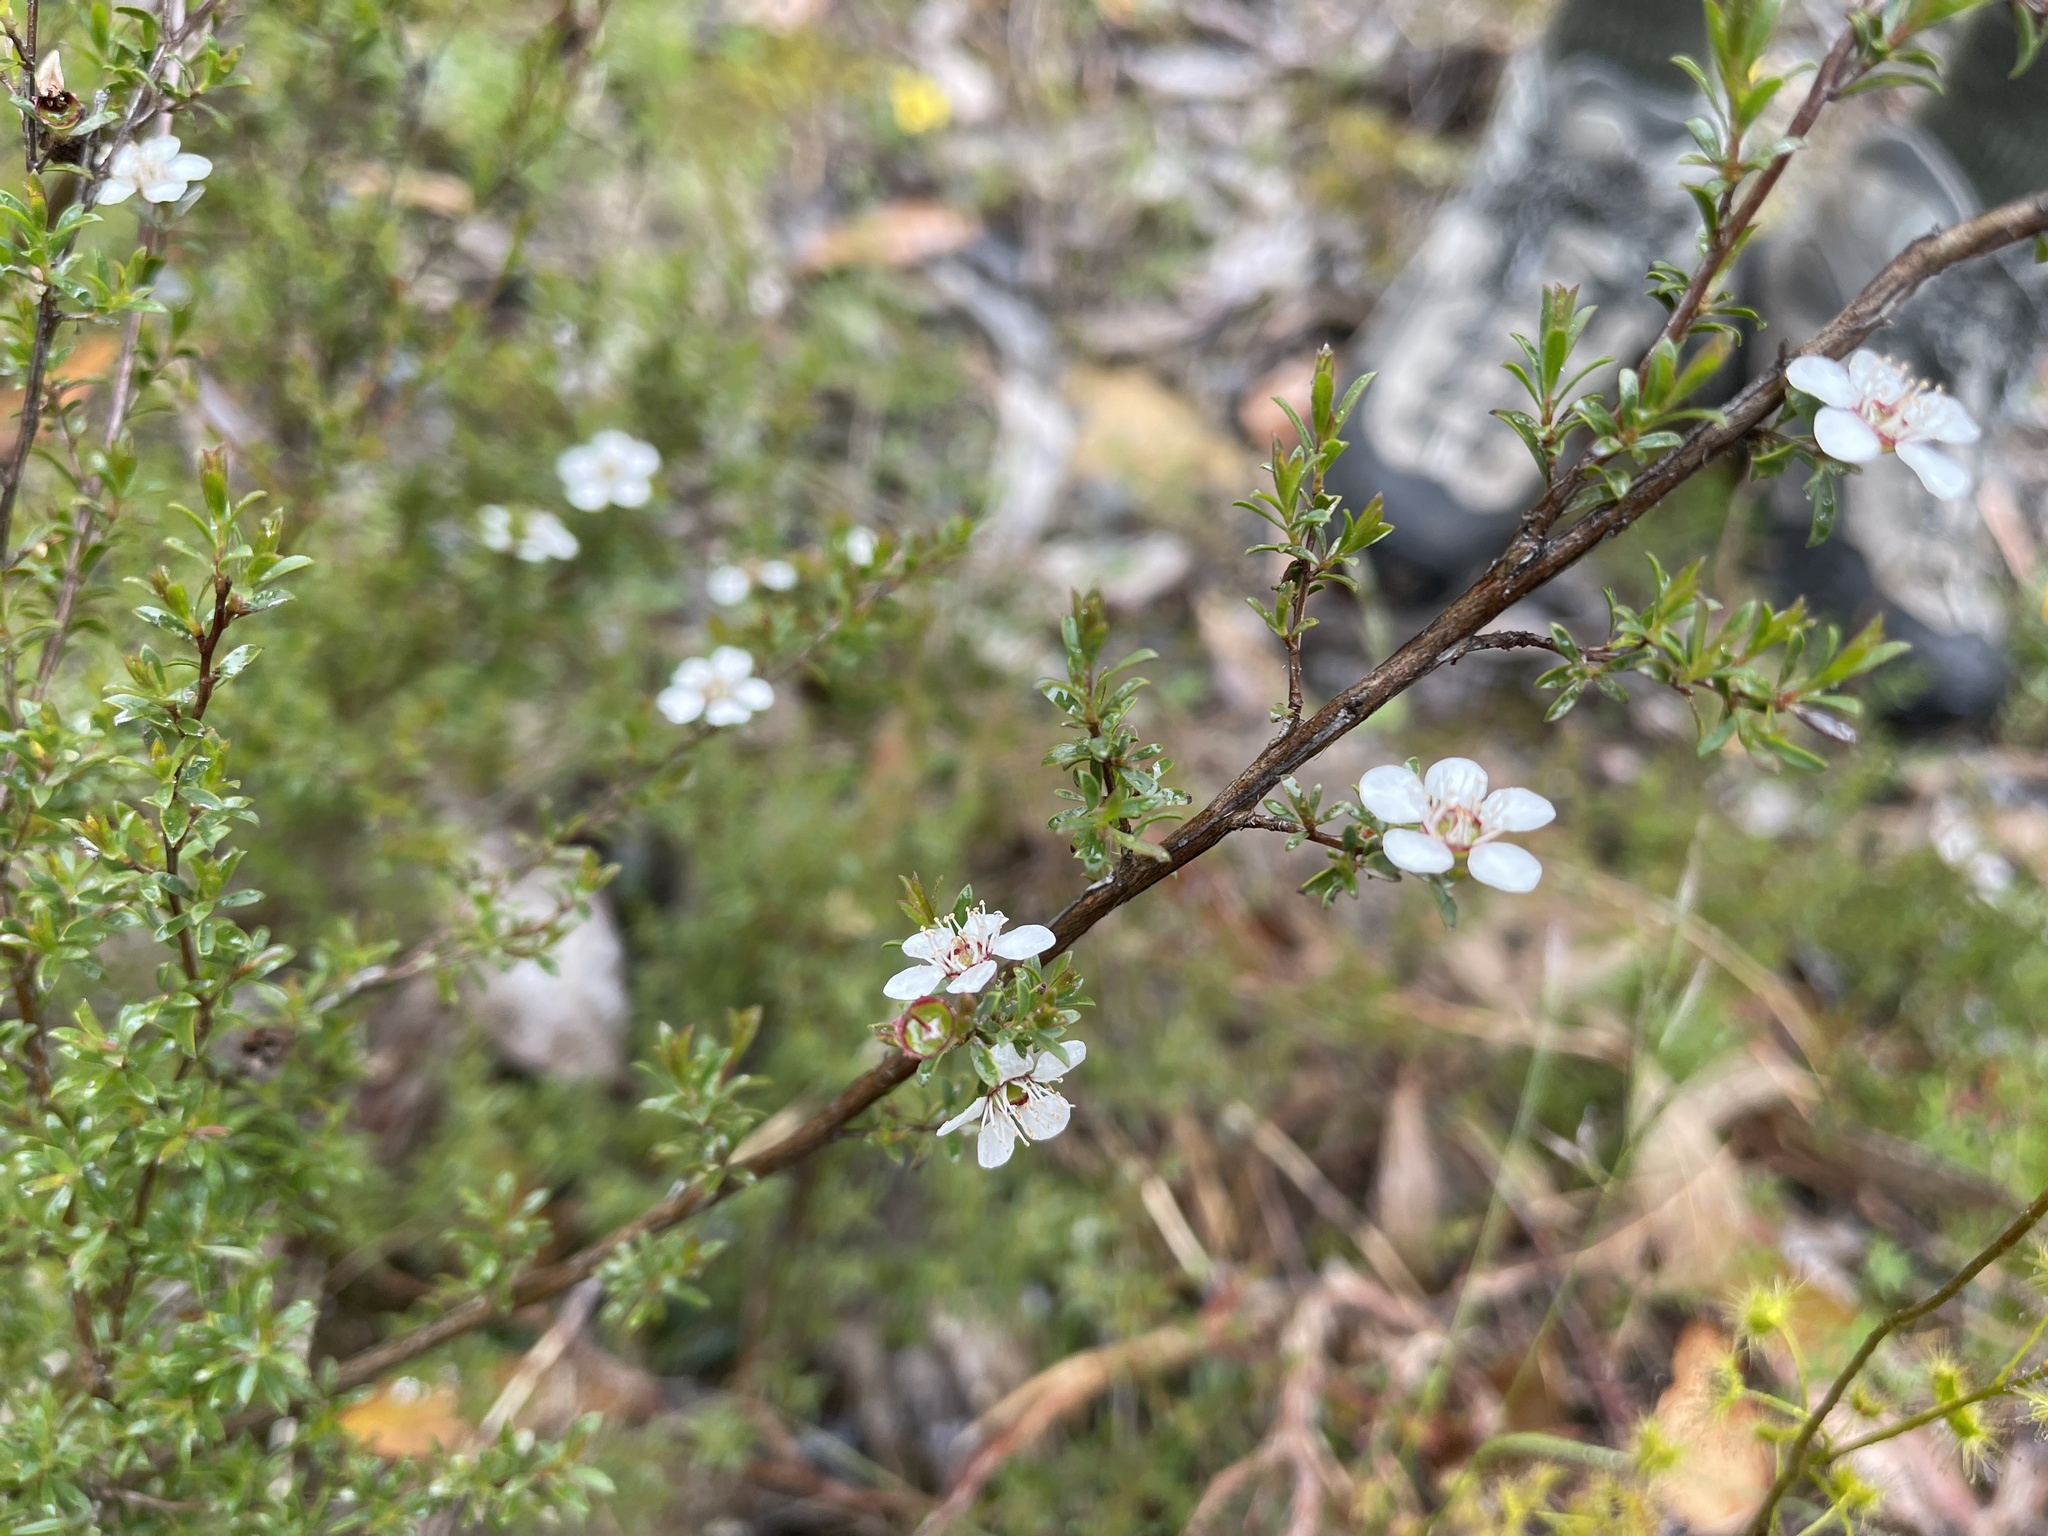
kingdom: Plantae
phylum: Tracheophyta
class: Magnoliopsida
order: Myrtales
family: Myrtaceae
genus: Leptospermum
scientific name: Leptospermum myrsinoides
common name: Heath teatree
